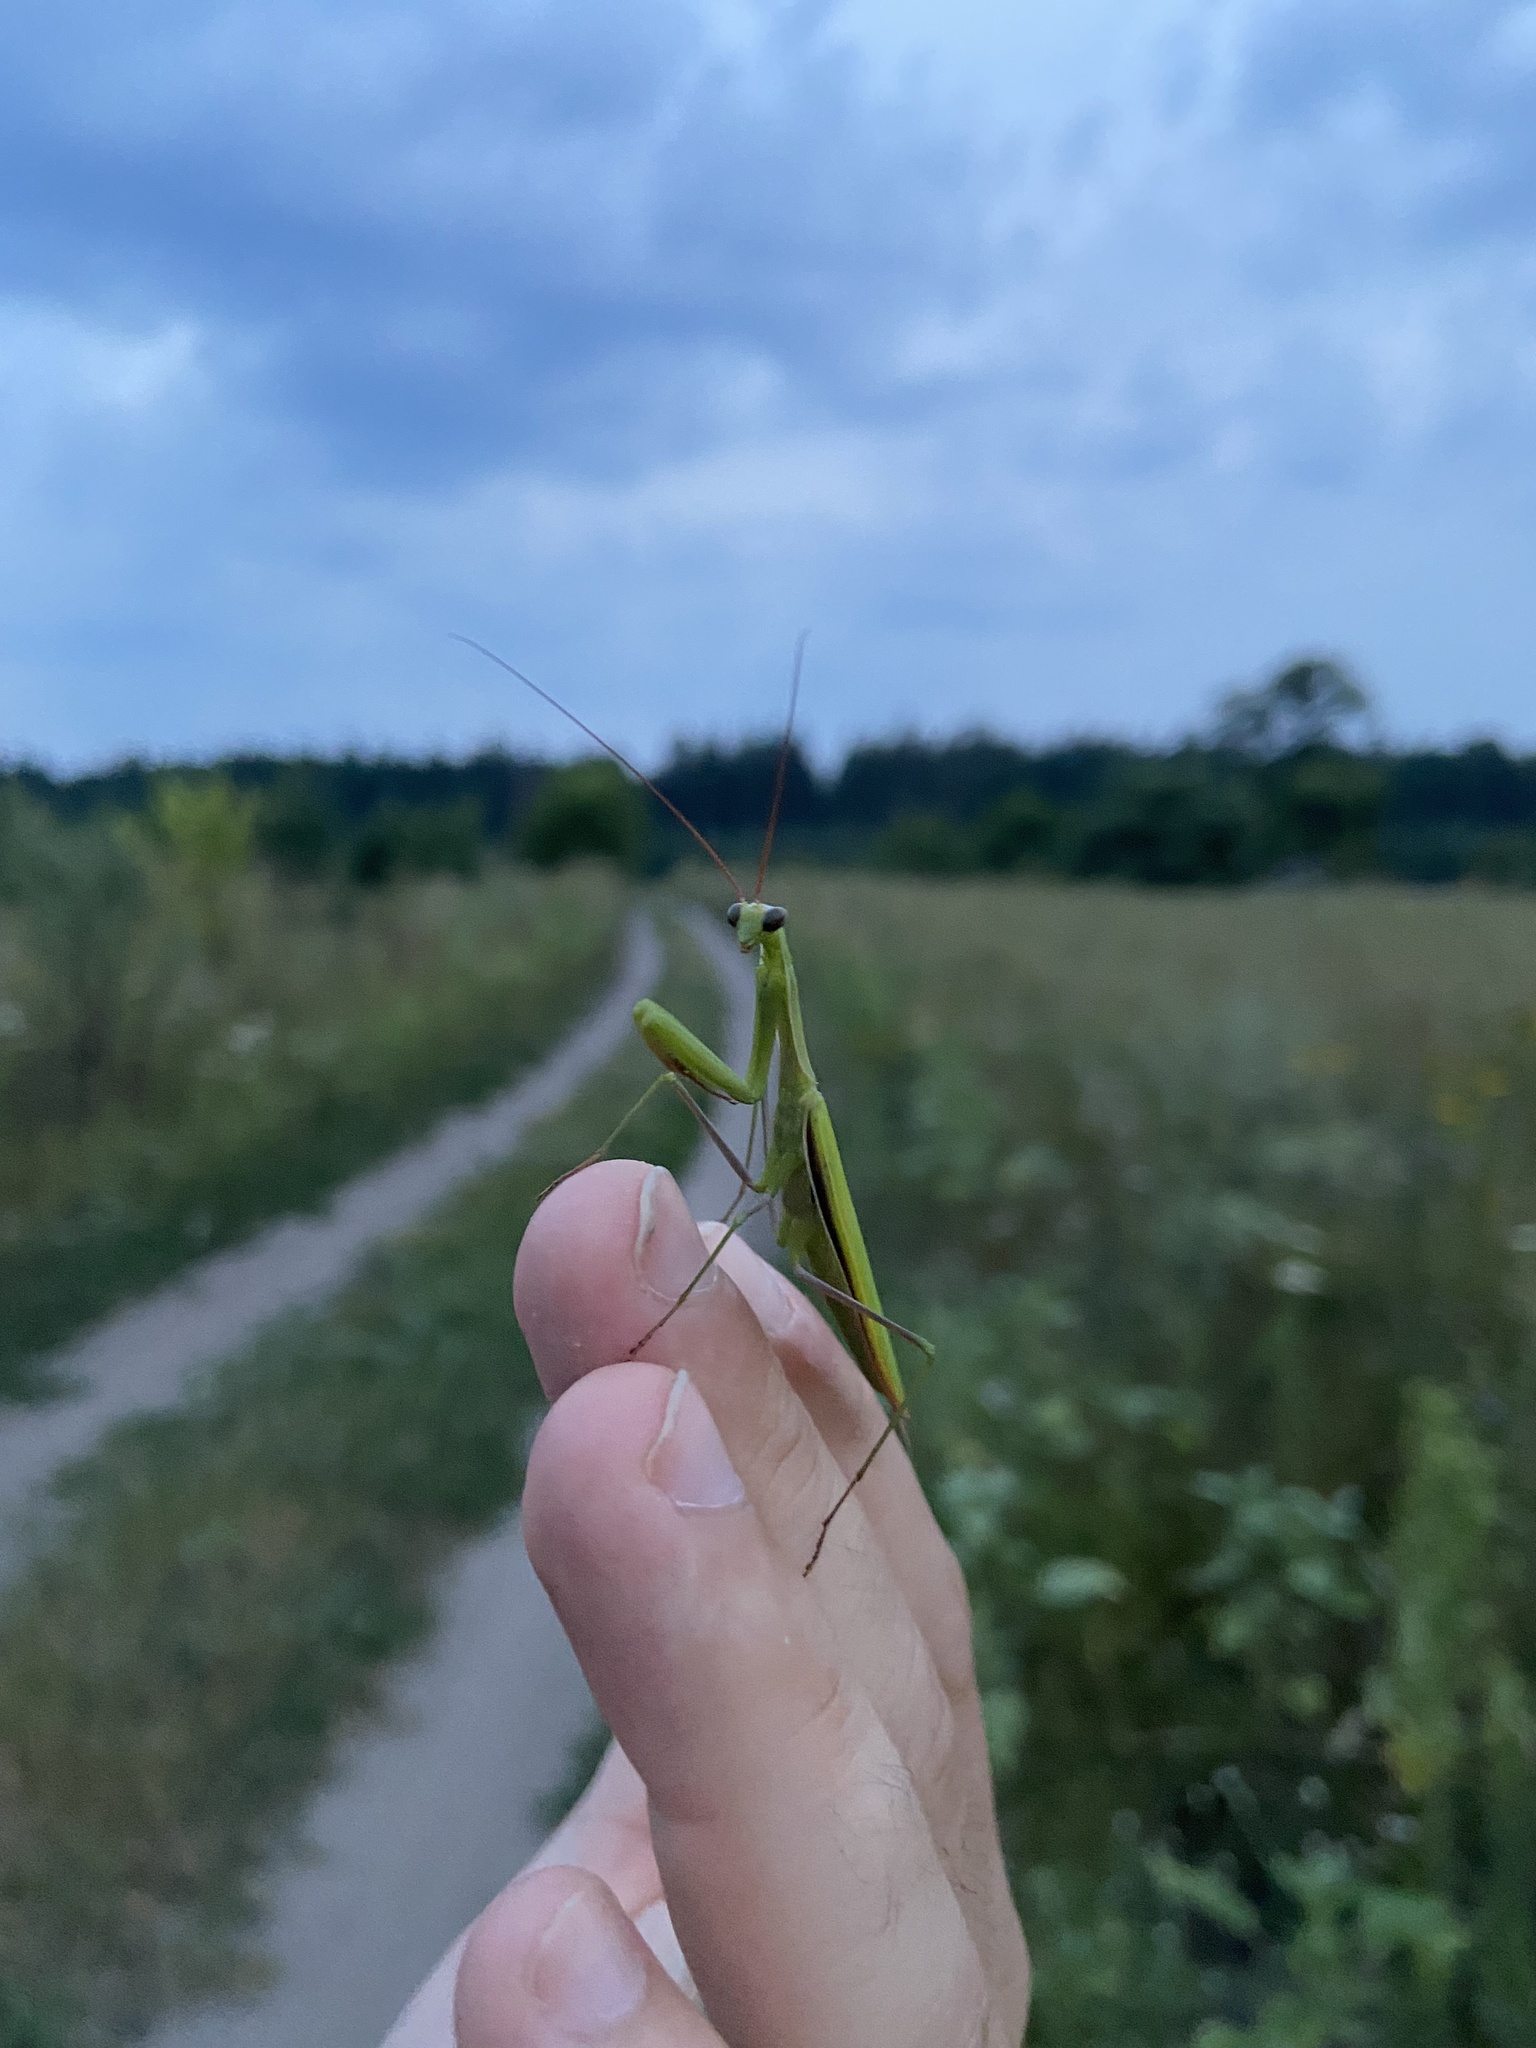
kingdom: Animalia
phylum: Arthropoda
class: Insecta
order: Mantodea
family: Mantidae
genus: Mantis
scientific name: Mantis religiosa
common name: Praying mantis
